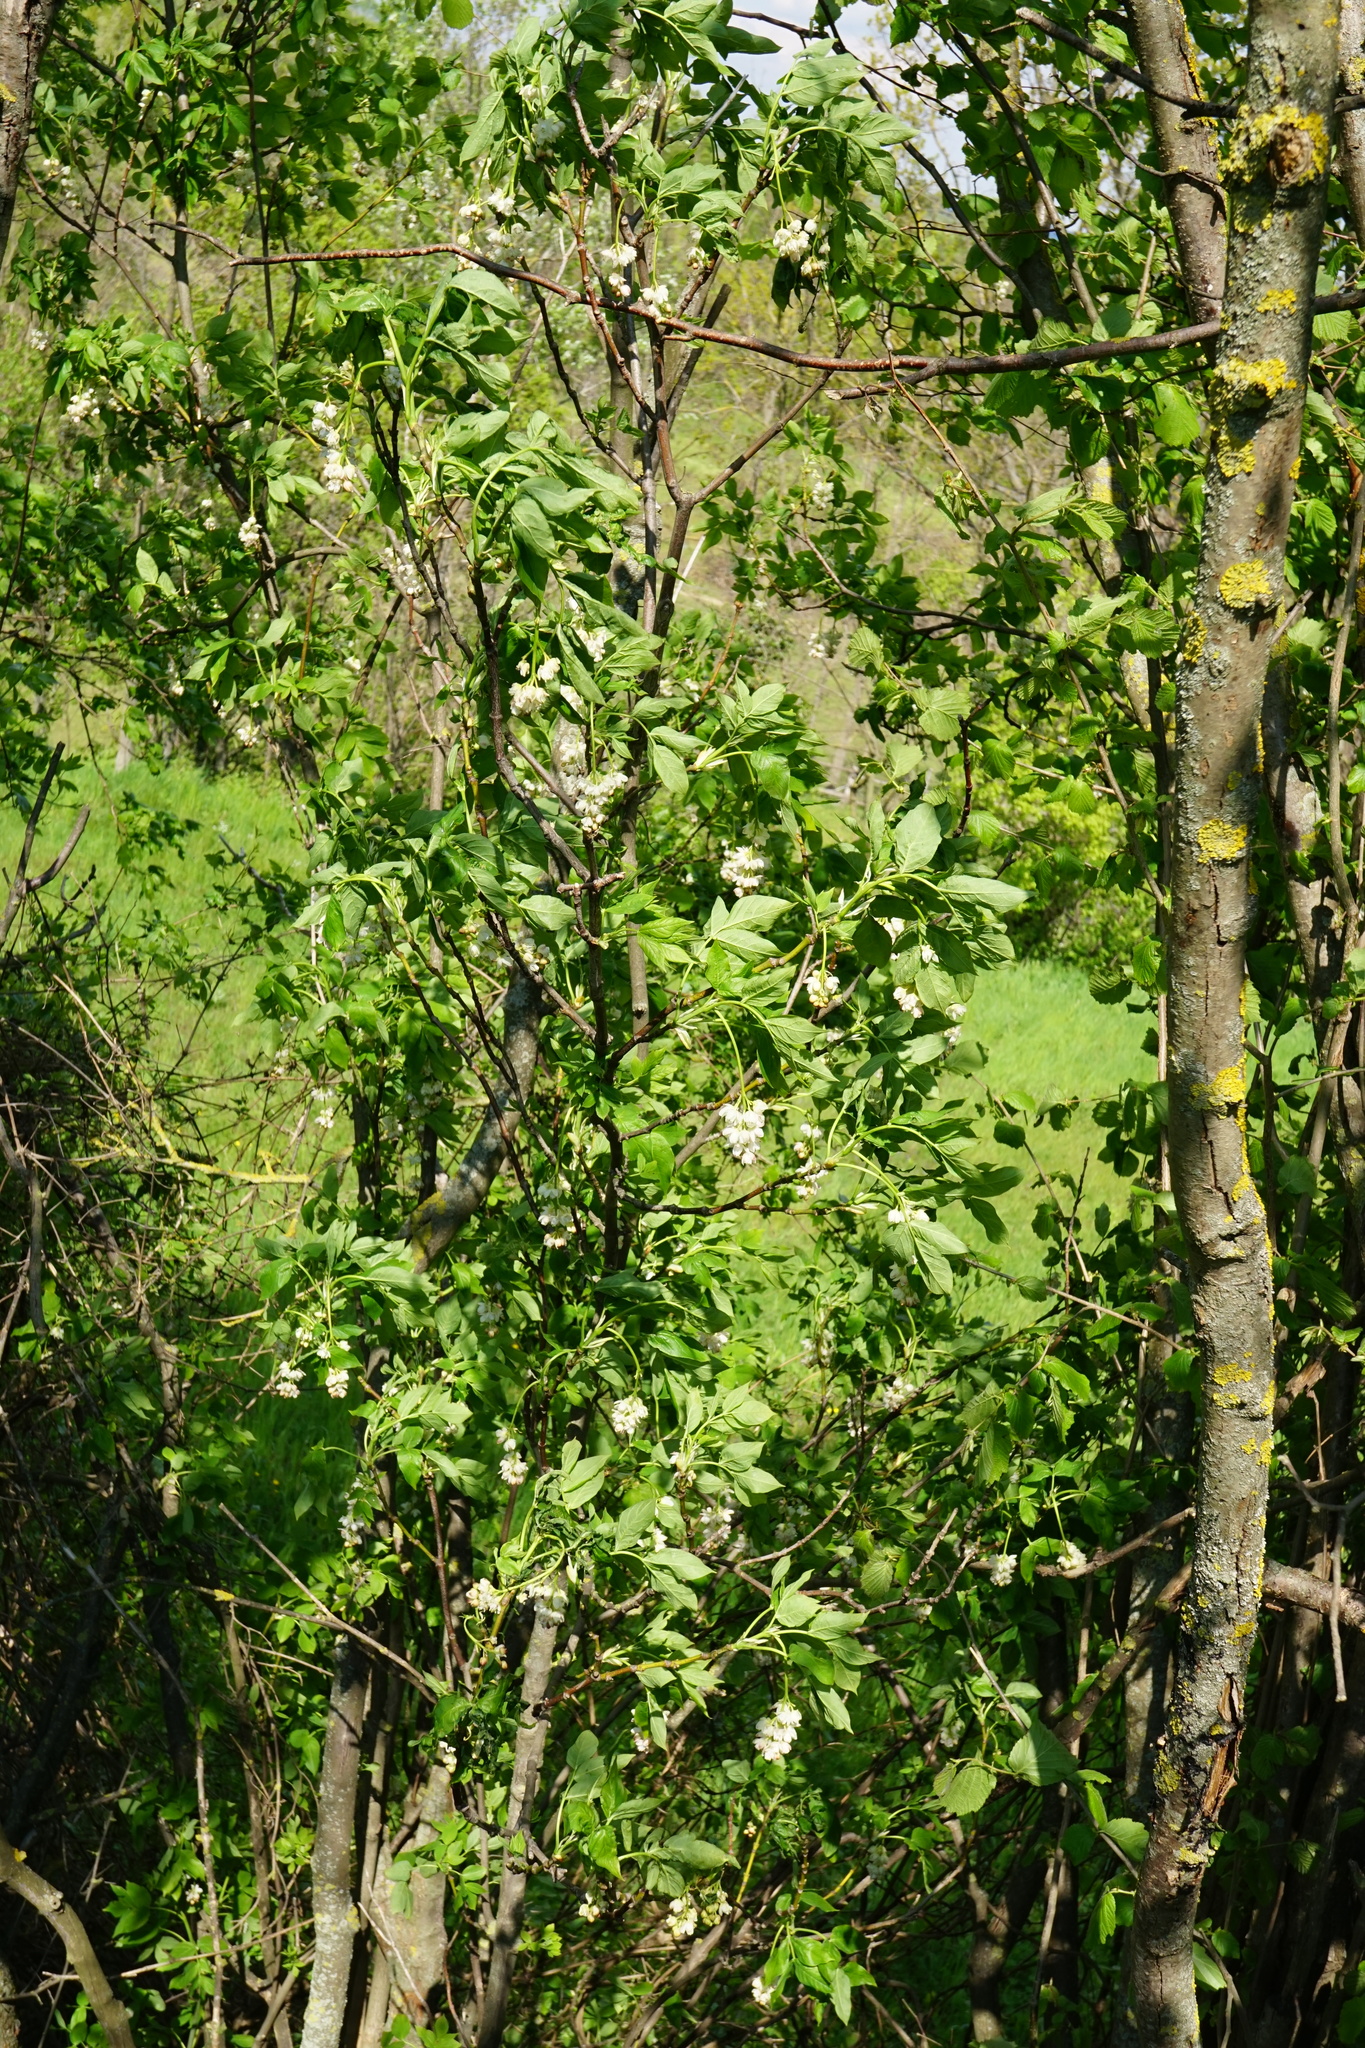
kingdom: Plantae
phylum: Tracheophyta
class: Magnoliopsida
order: Crossosomatales
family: Staphyleaceae
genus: Staphylea
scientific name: Staphylea pinnata
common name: Bladdernut
